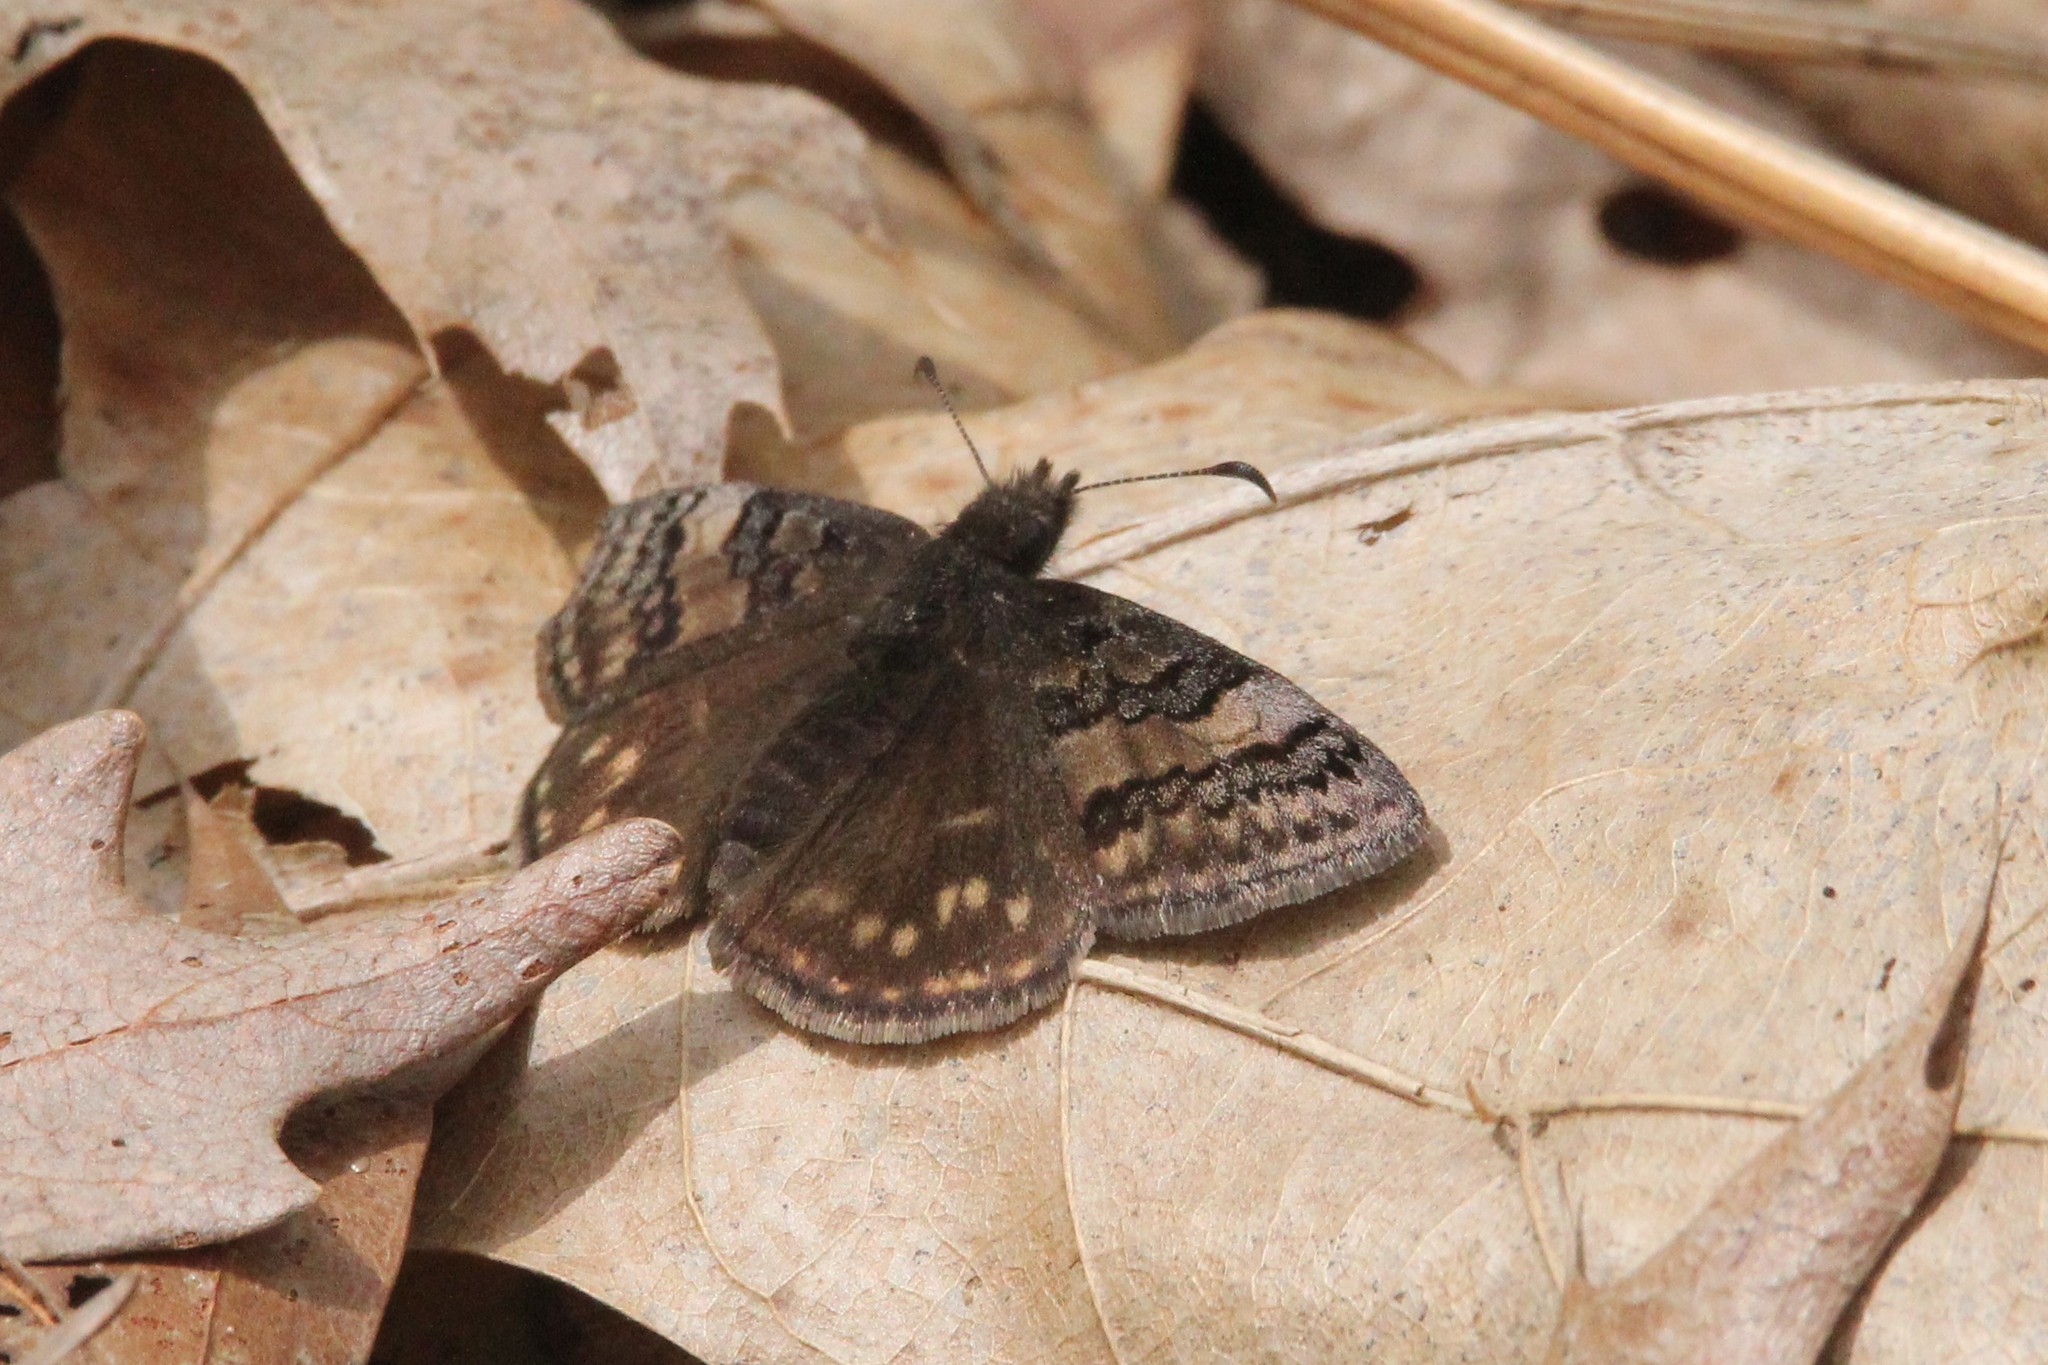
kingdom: Animalia
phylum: Arthropoda
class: Insecta
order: Lepidoptera
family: Hesperiidae
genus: Erynnis
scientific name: Erynnis brizo
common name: Sleepy duskywing
